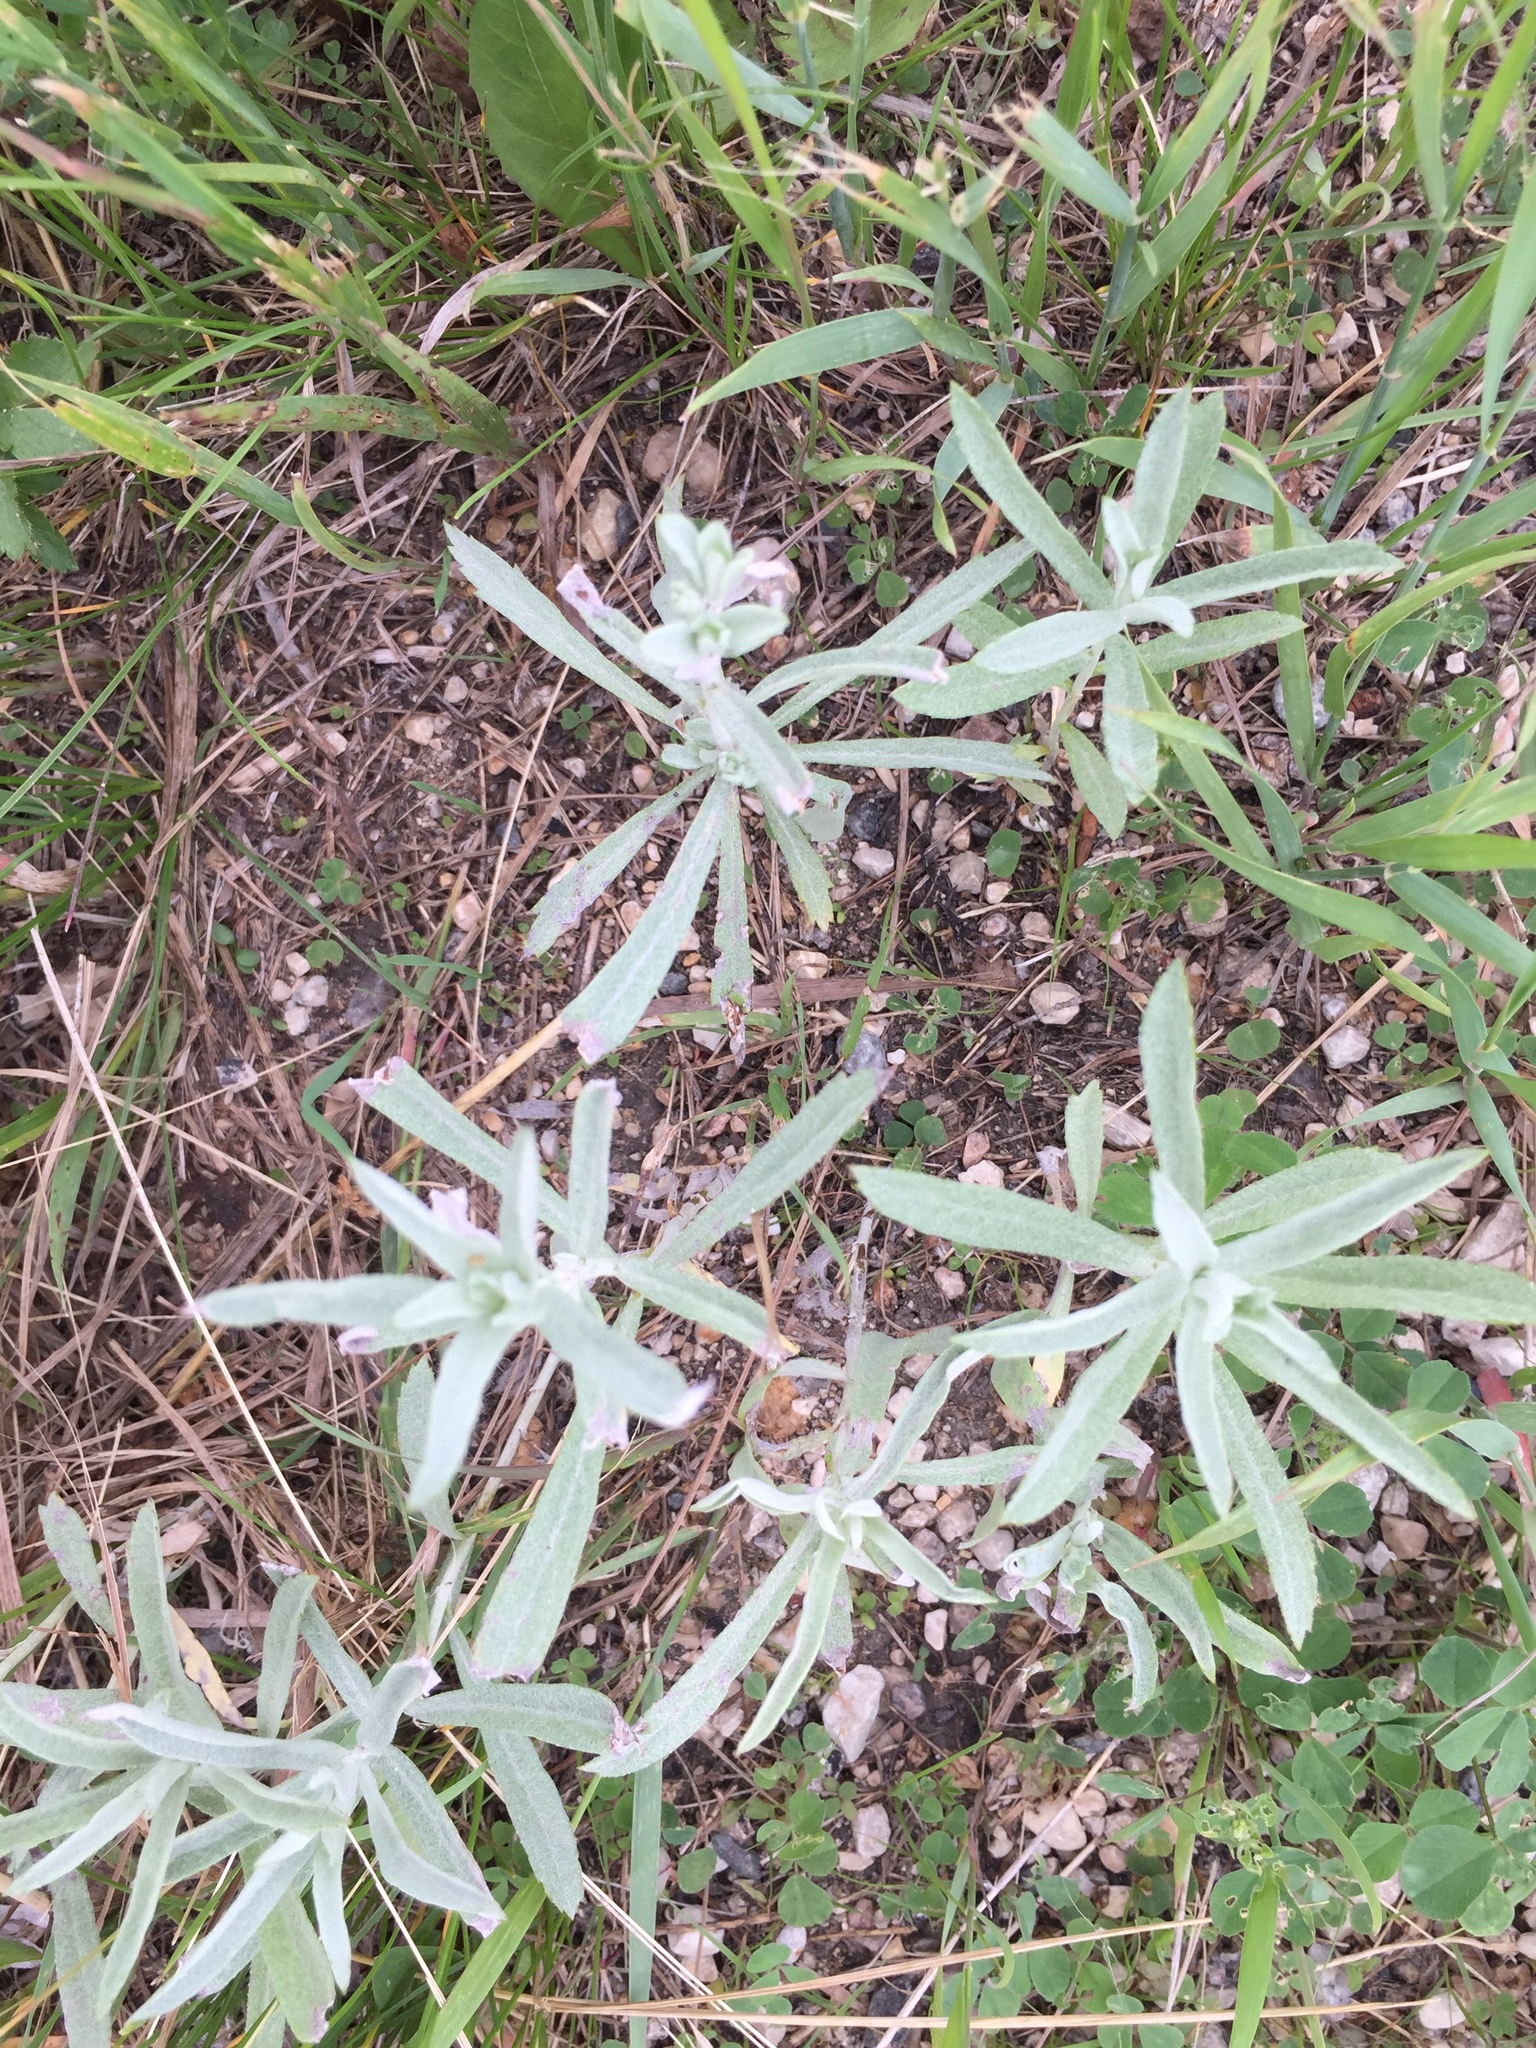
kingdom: Plantae
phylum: Tracheophyta
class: Magnoliopsida
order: Asterales
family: Asteraceae
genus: Artemisia
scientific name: Artemisia ludoviciana
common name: Western mugwort
